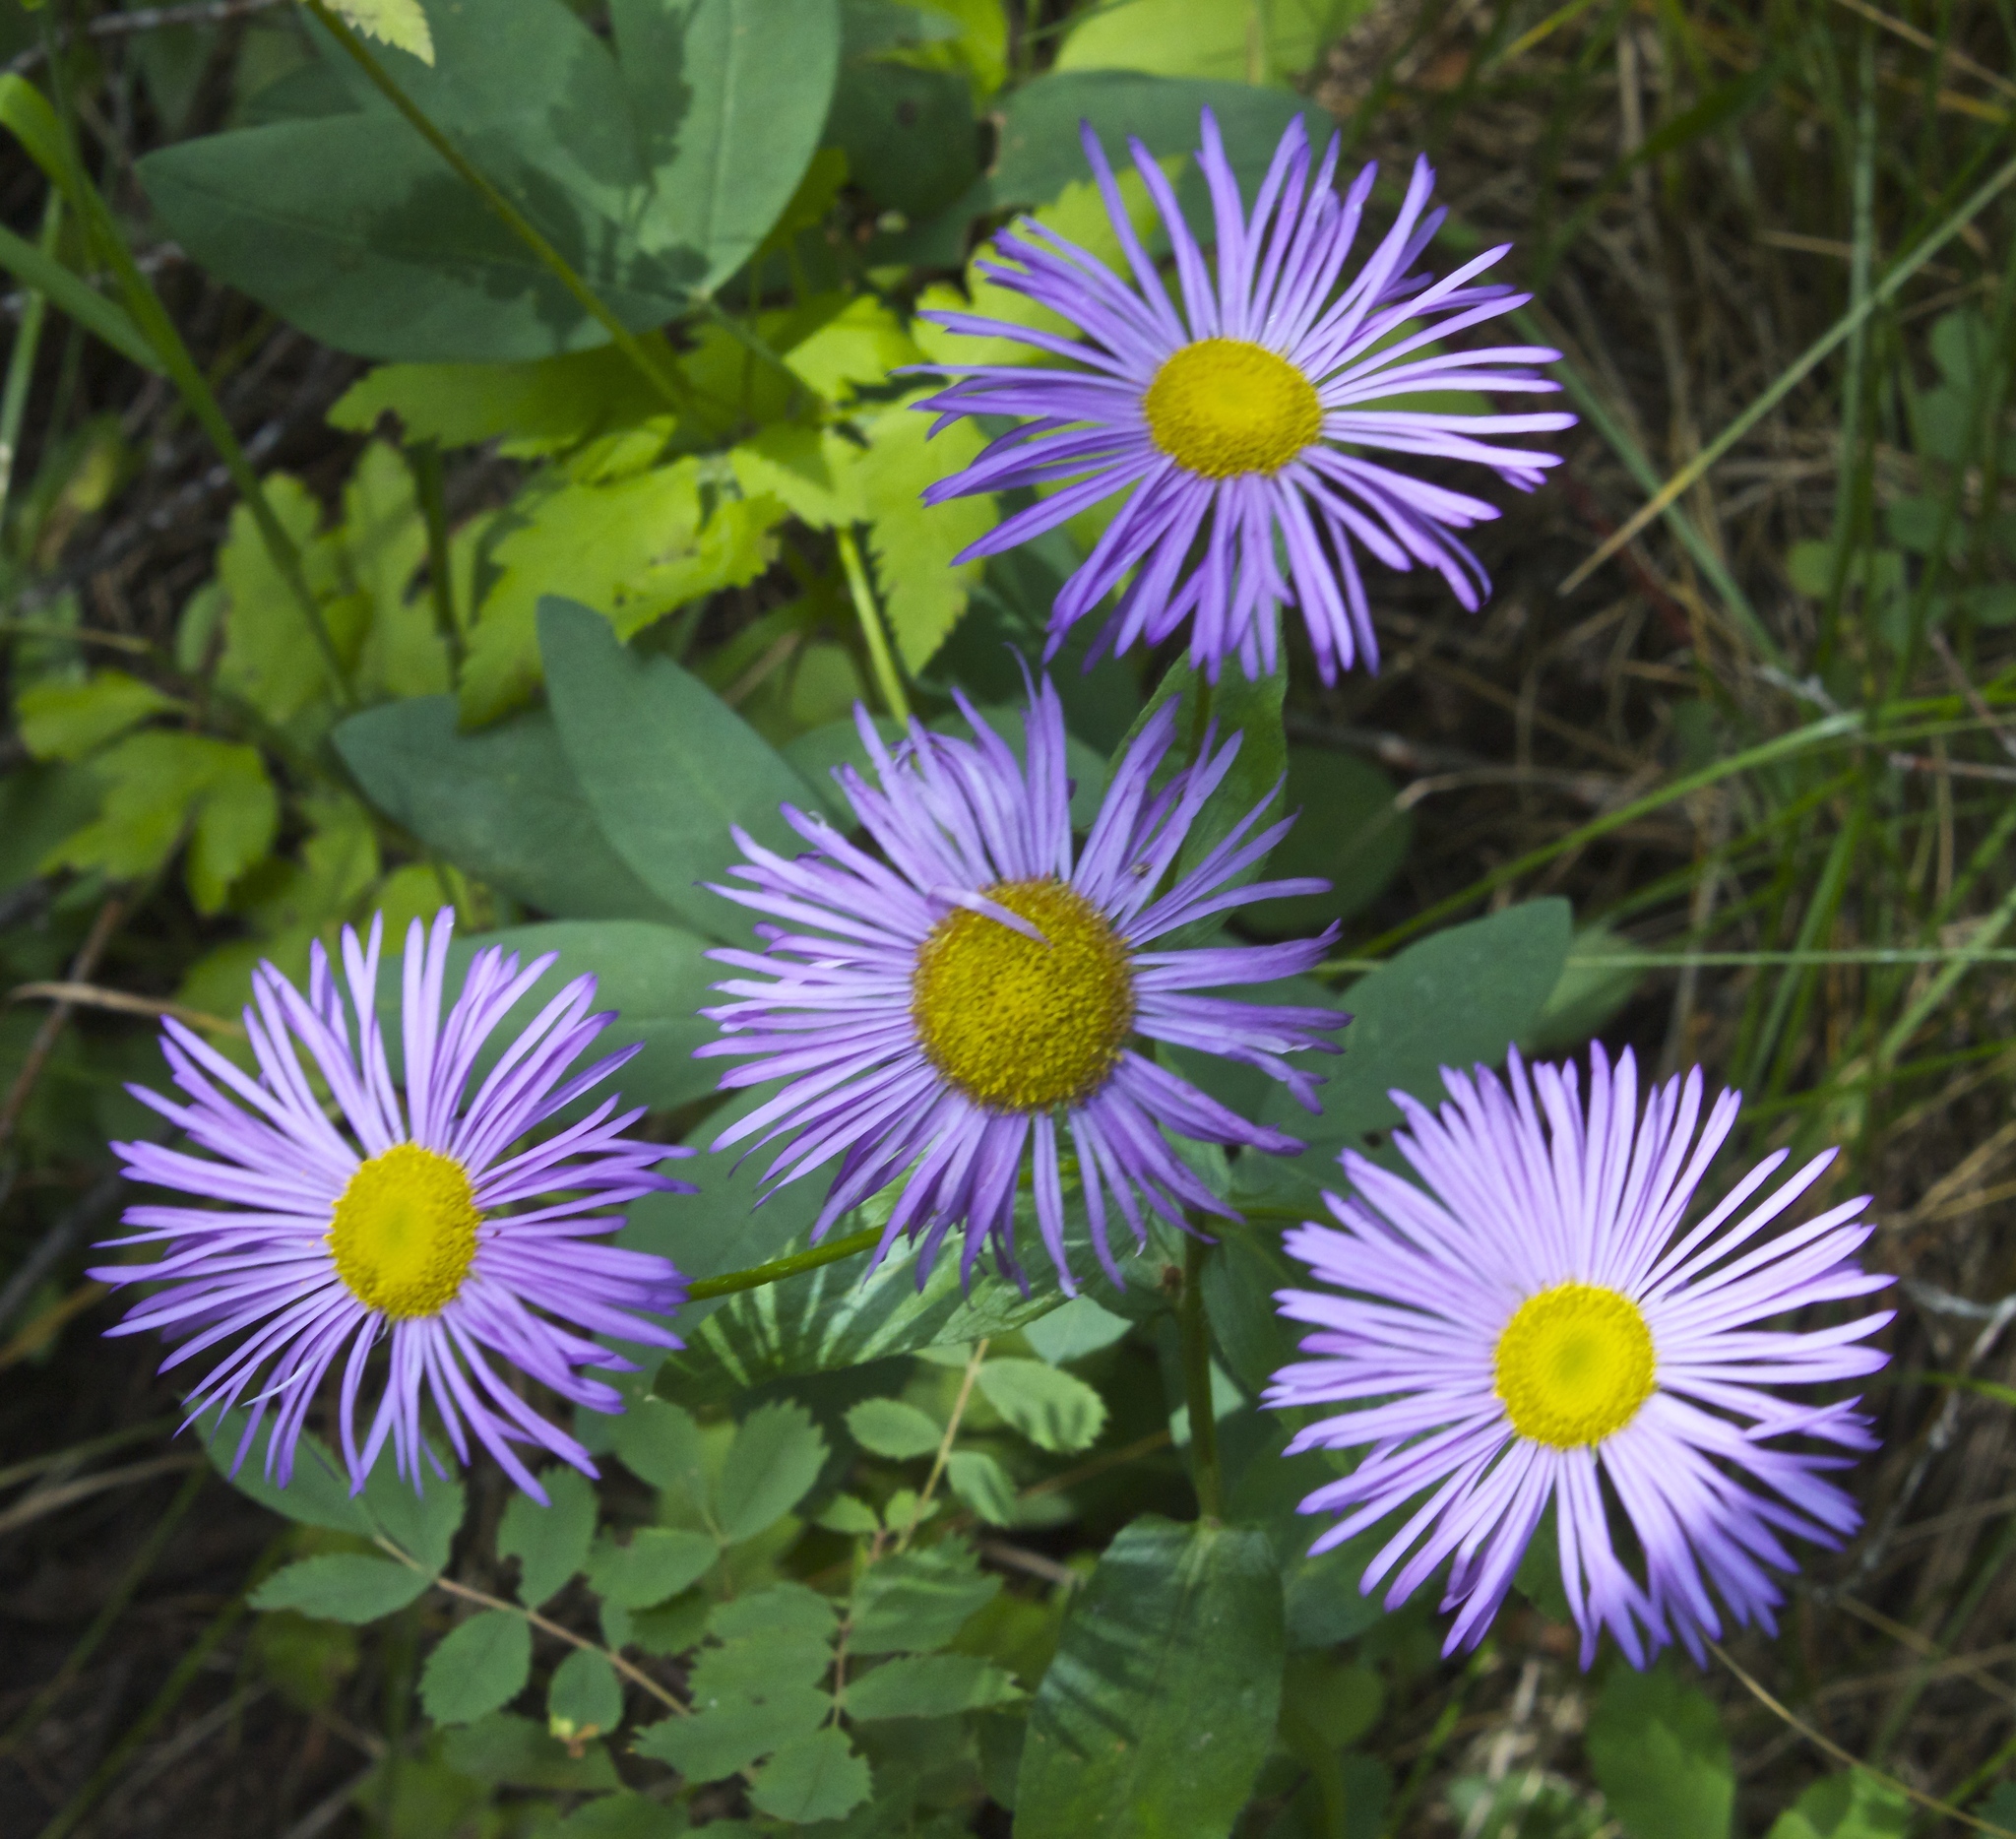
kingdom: Plantae
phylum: Tracheophyta
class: Magnoliopsida
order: Asterales
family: Asteraceae
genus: Erigeron
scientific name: Erigeron speciosus
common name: Aspen fleabane
